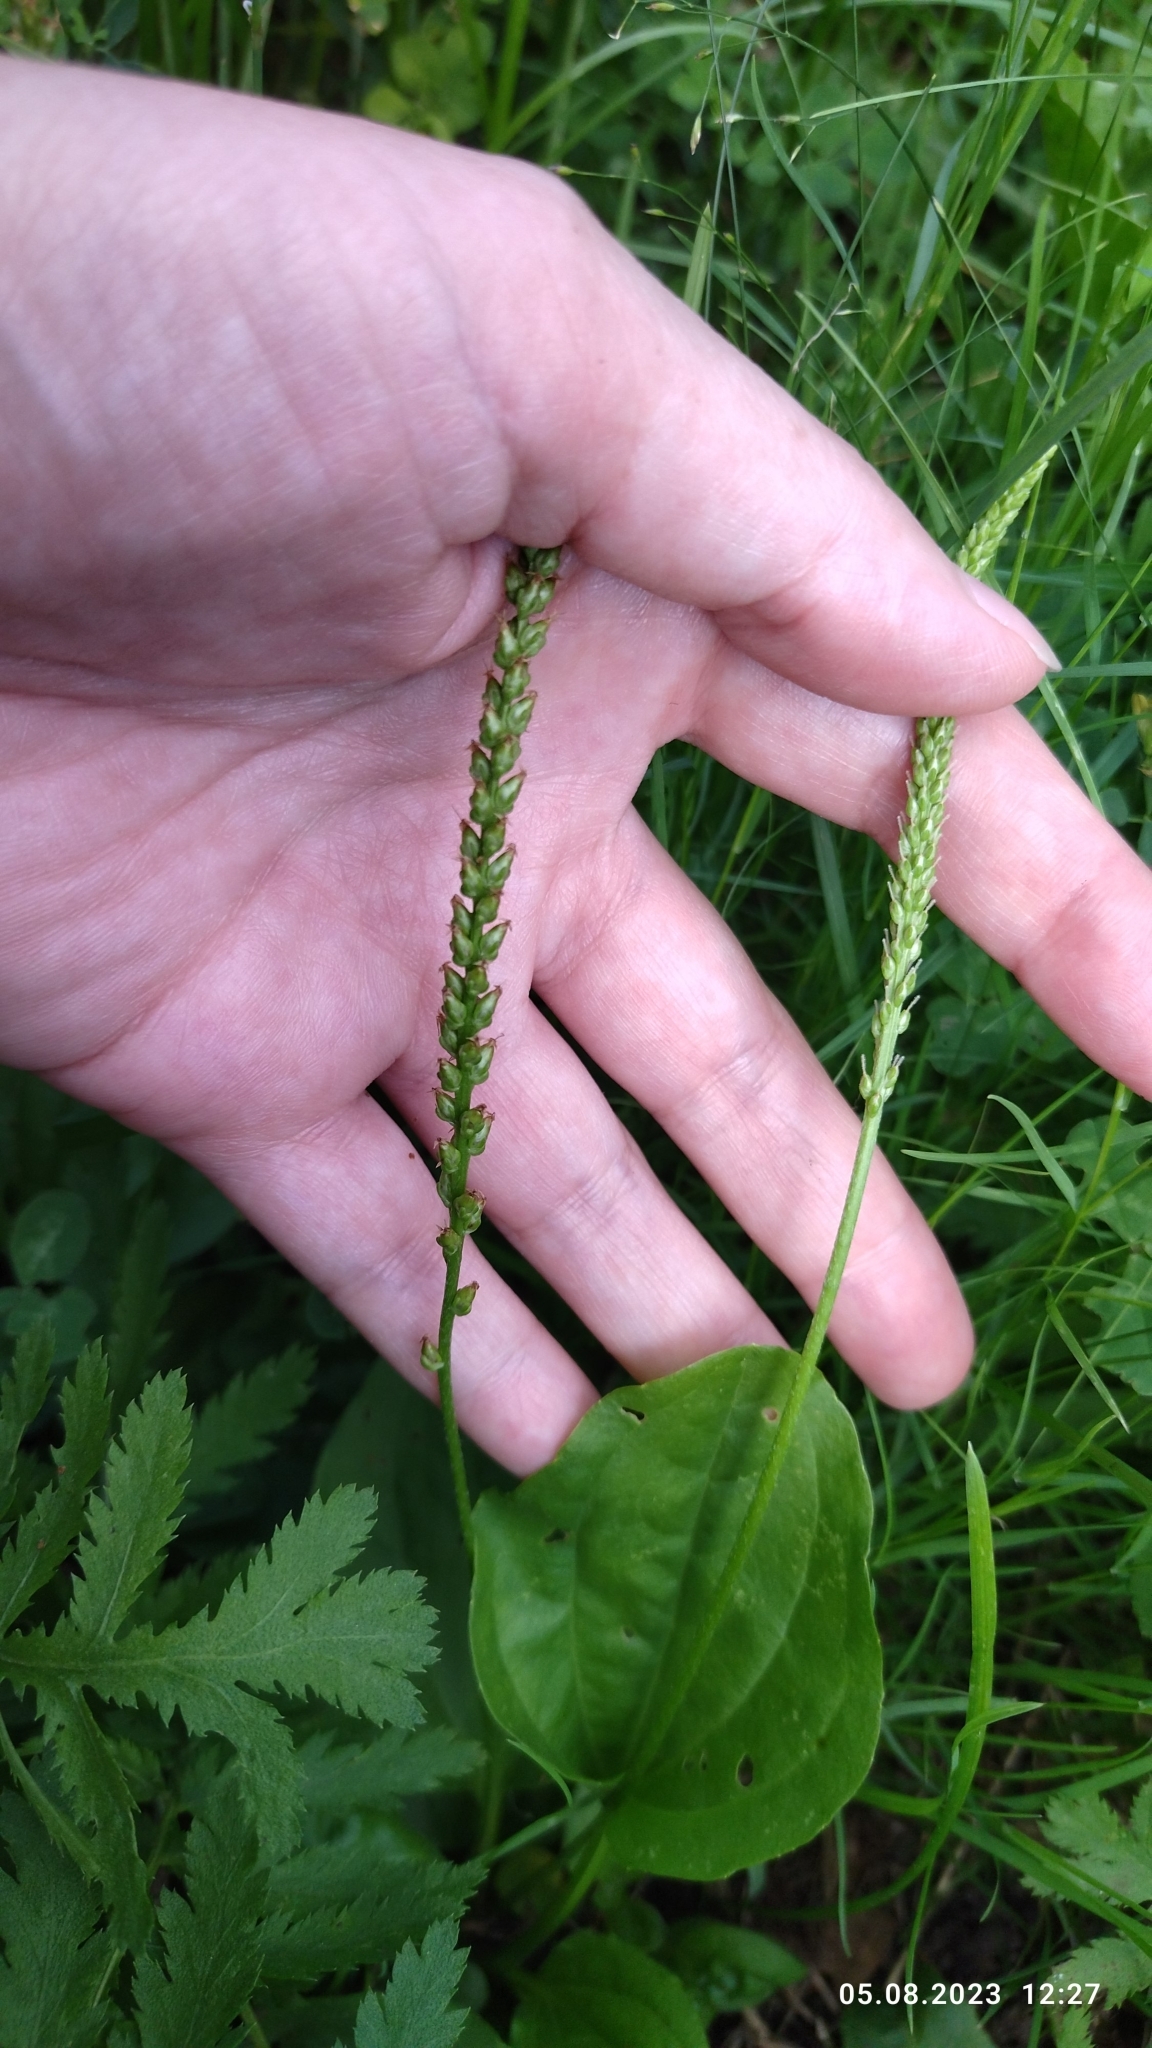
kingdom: Plantae
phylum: Tracheophyta
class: Magnoliopsida
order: Lamiales
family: Plantaginaceae
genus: Plantago
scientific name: Plantago major
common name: Common plantain
